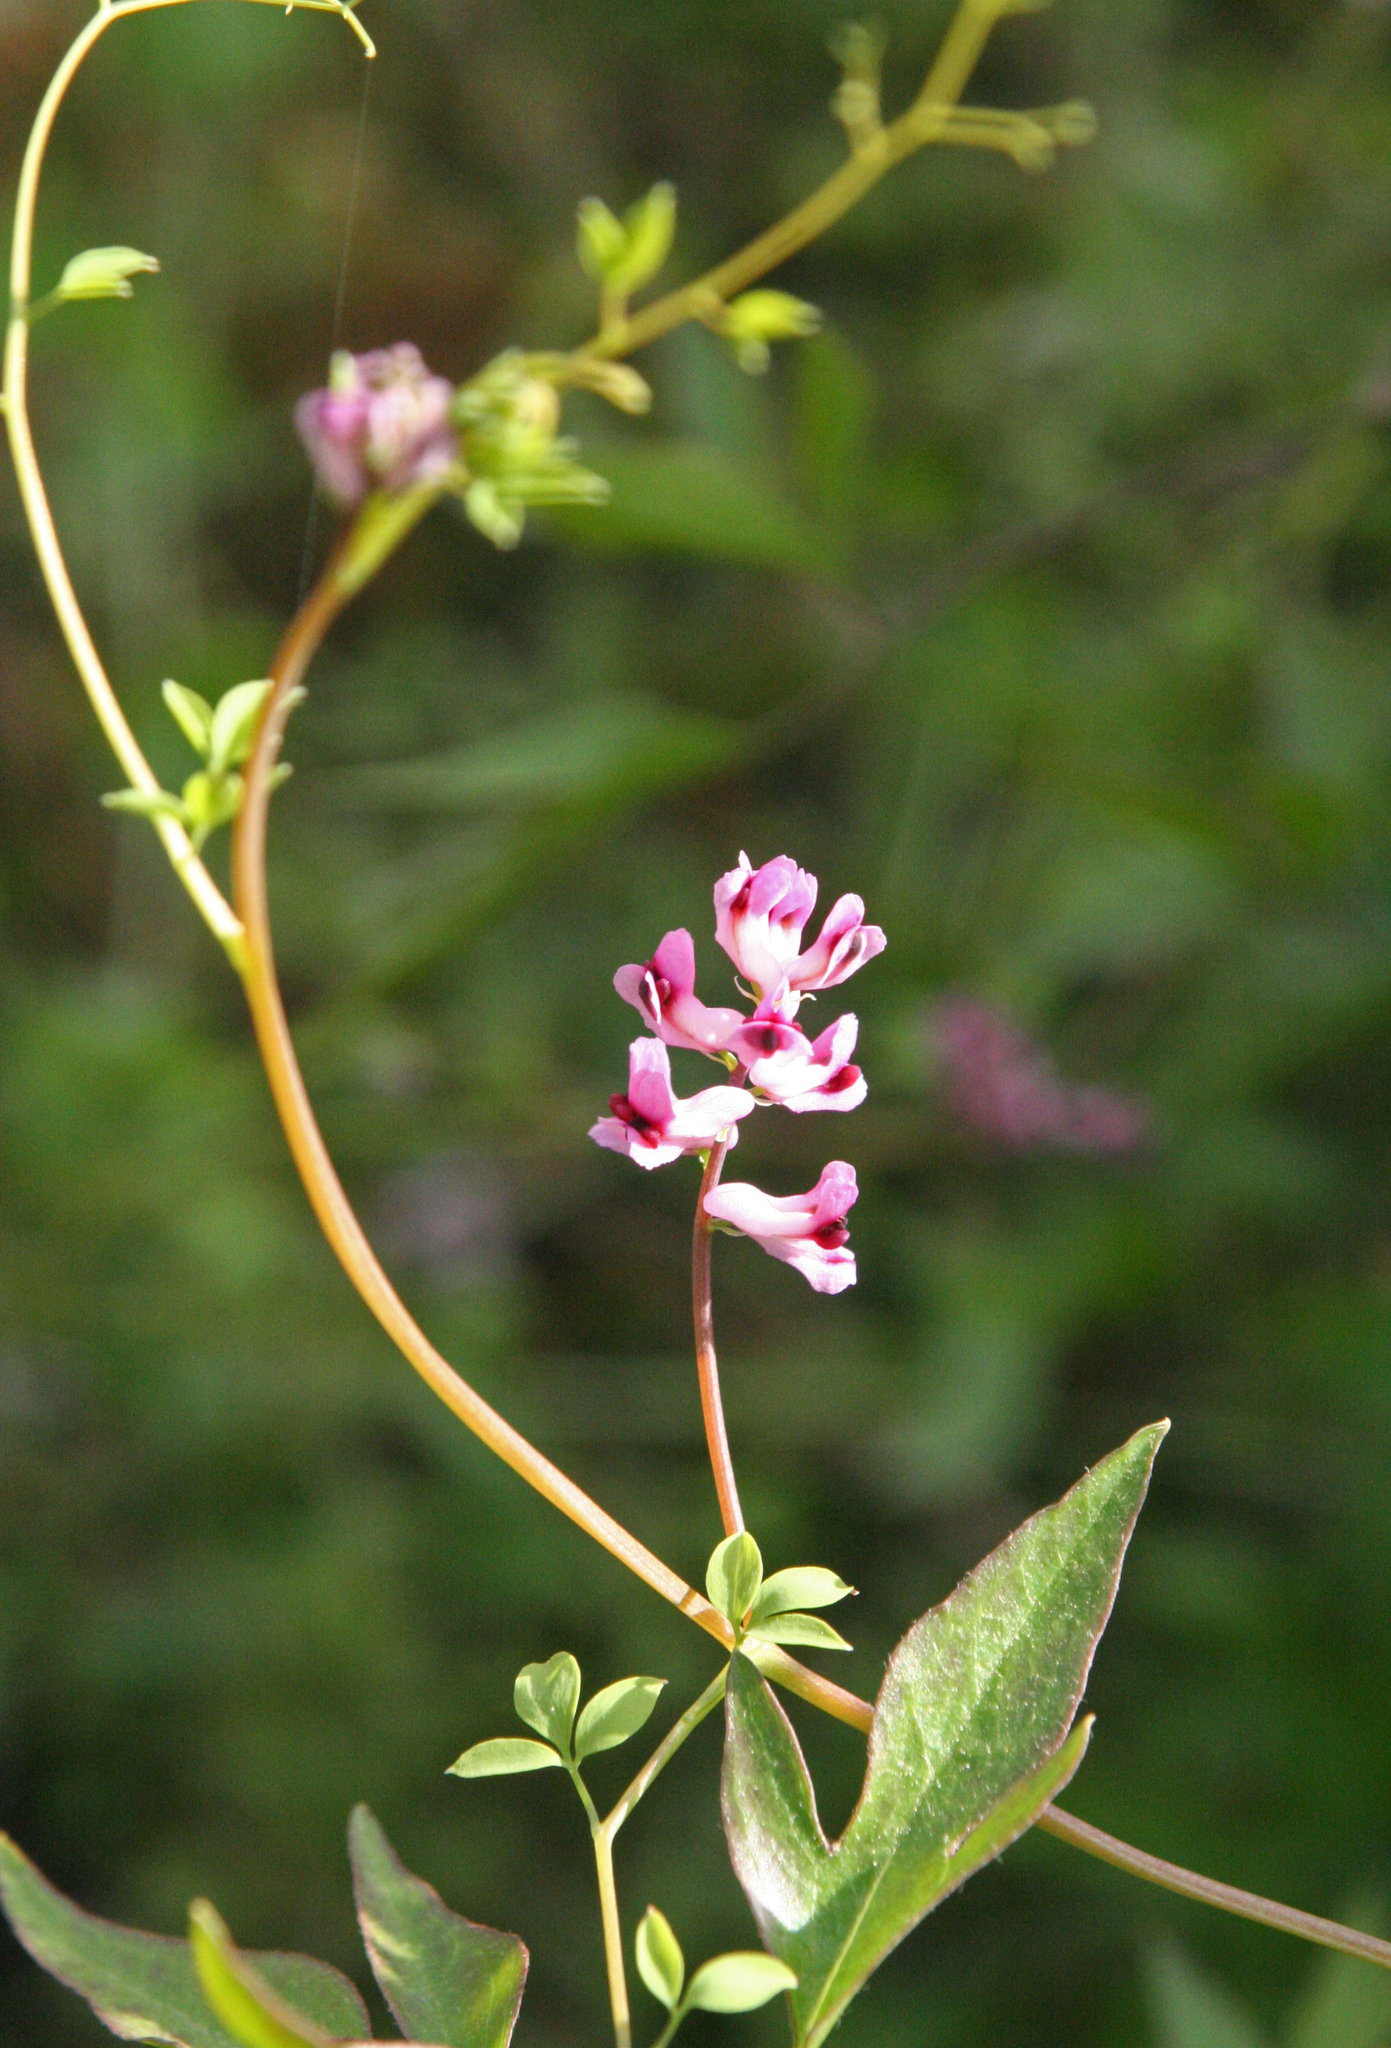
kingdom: Plantae
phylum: Tracheophyta
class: Magnoliopsida
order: Ranunculales
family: Papaveraceae
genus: Ceratocapnos
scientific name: Ceratocapnos turbinata
